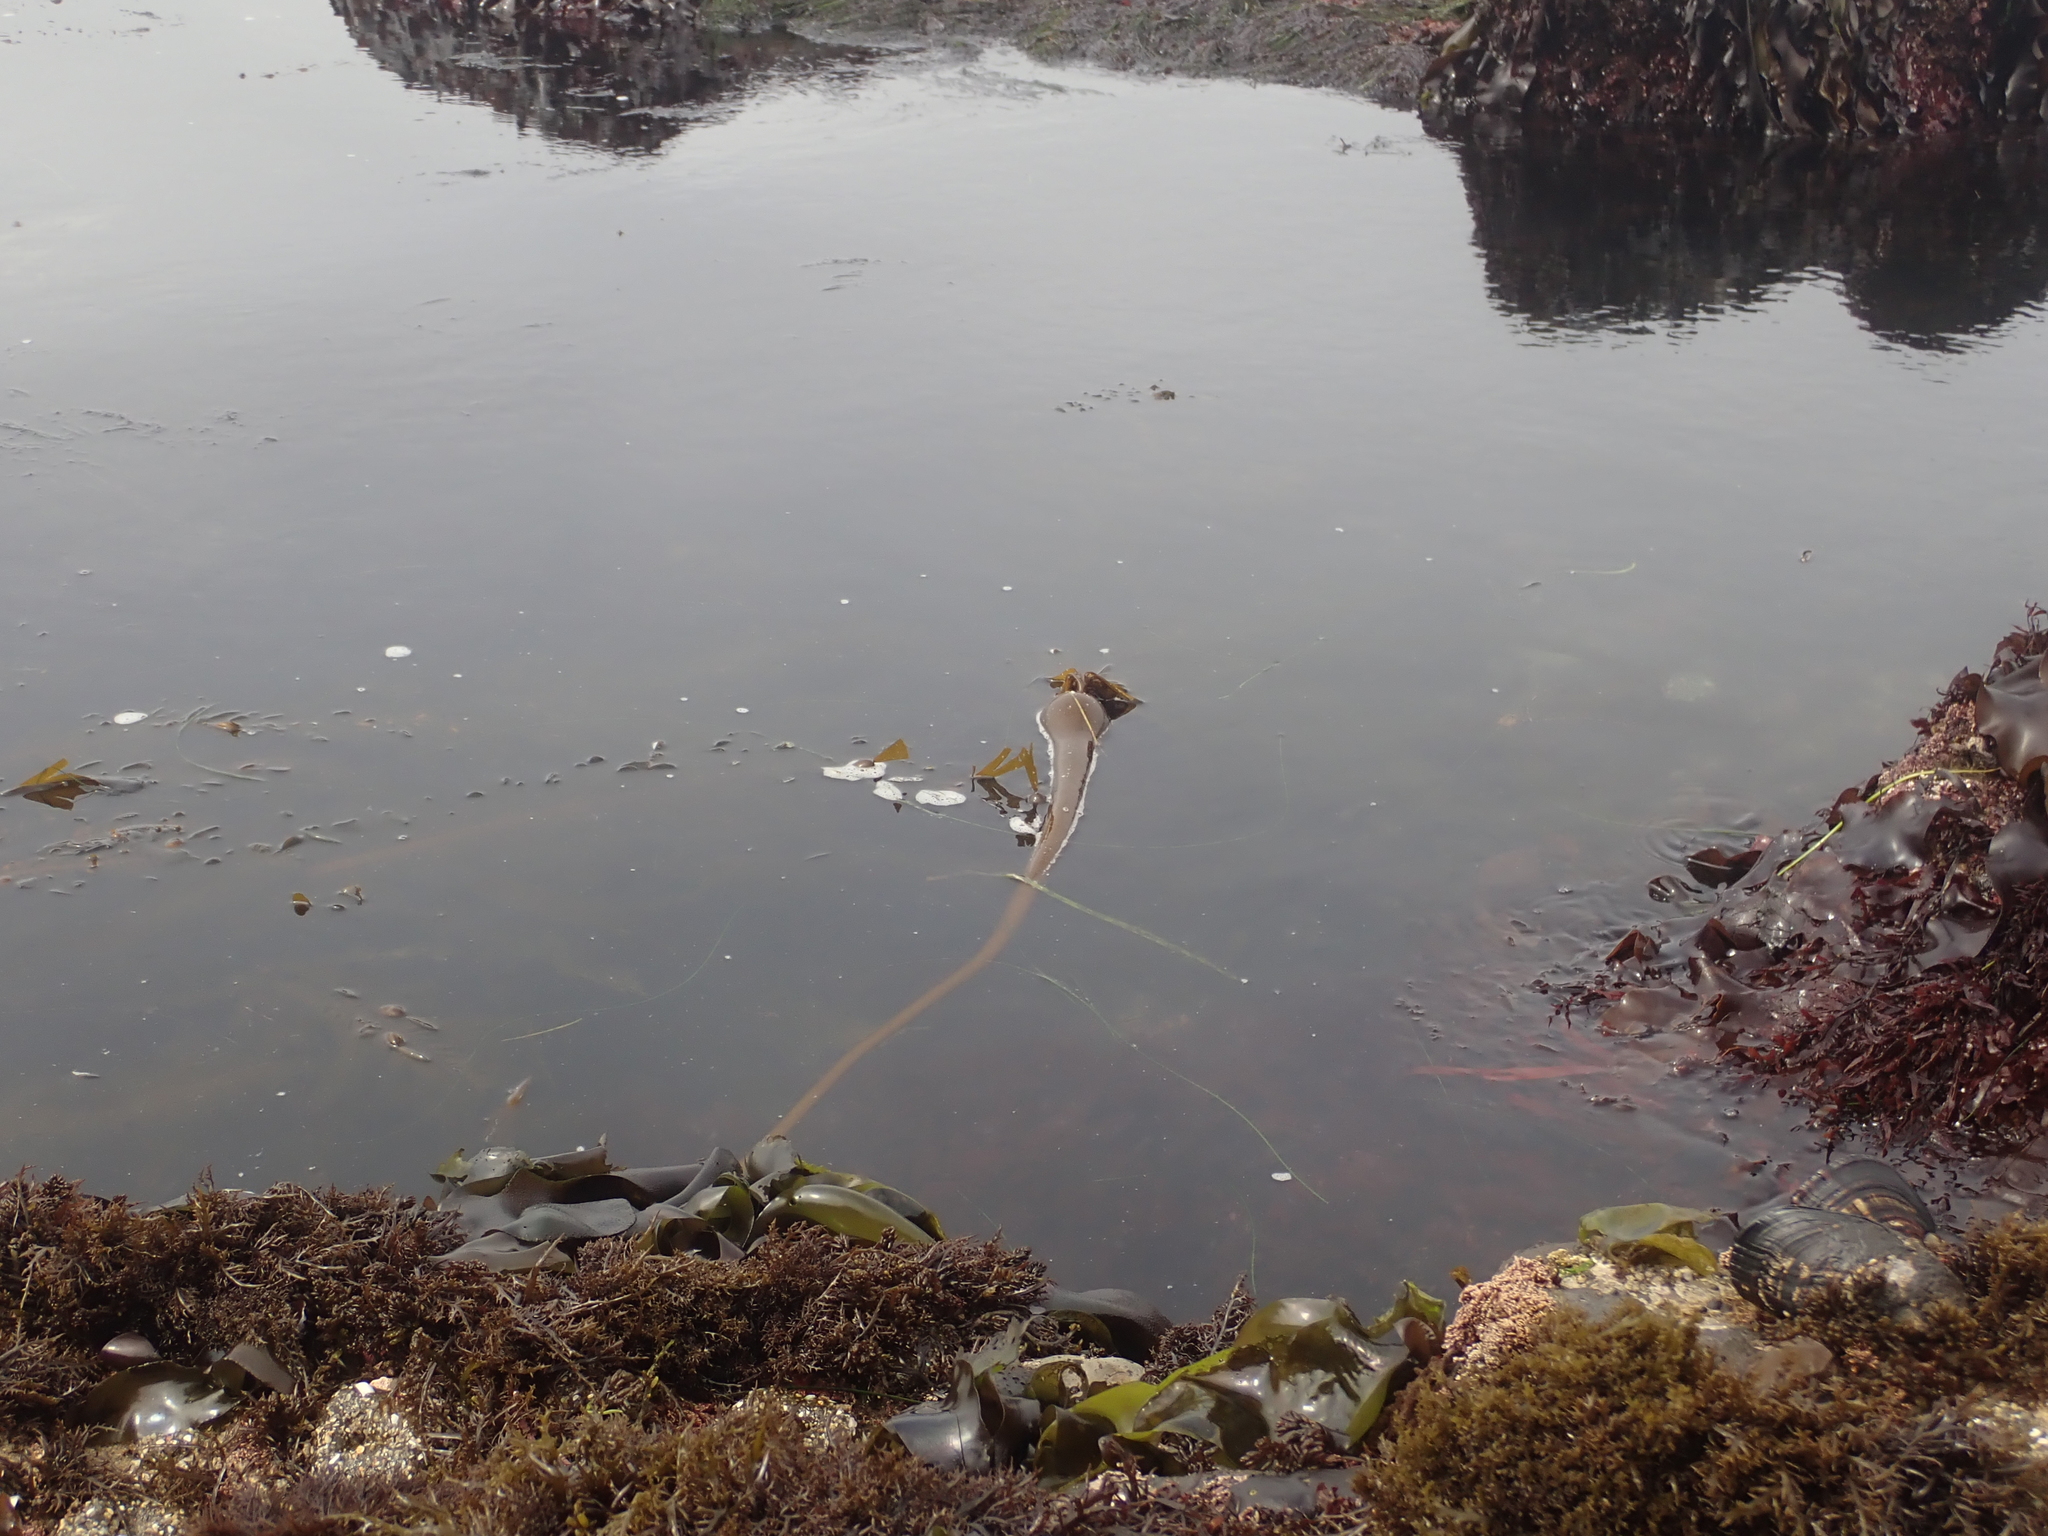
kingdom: Chromista
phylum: Ochrophyta
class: Phaeophyceae
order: Laminariales
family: Laminariaceae
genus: Nereocystis
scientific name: Nereocystis luetkeana
